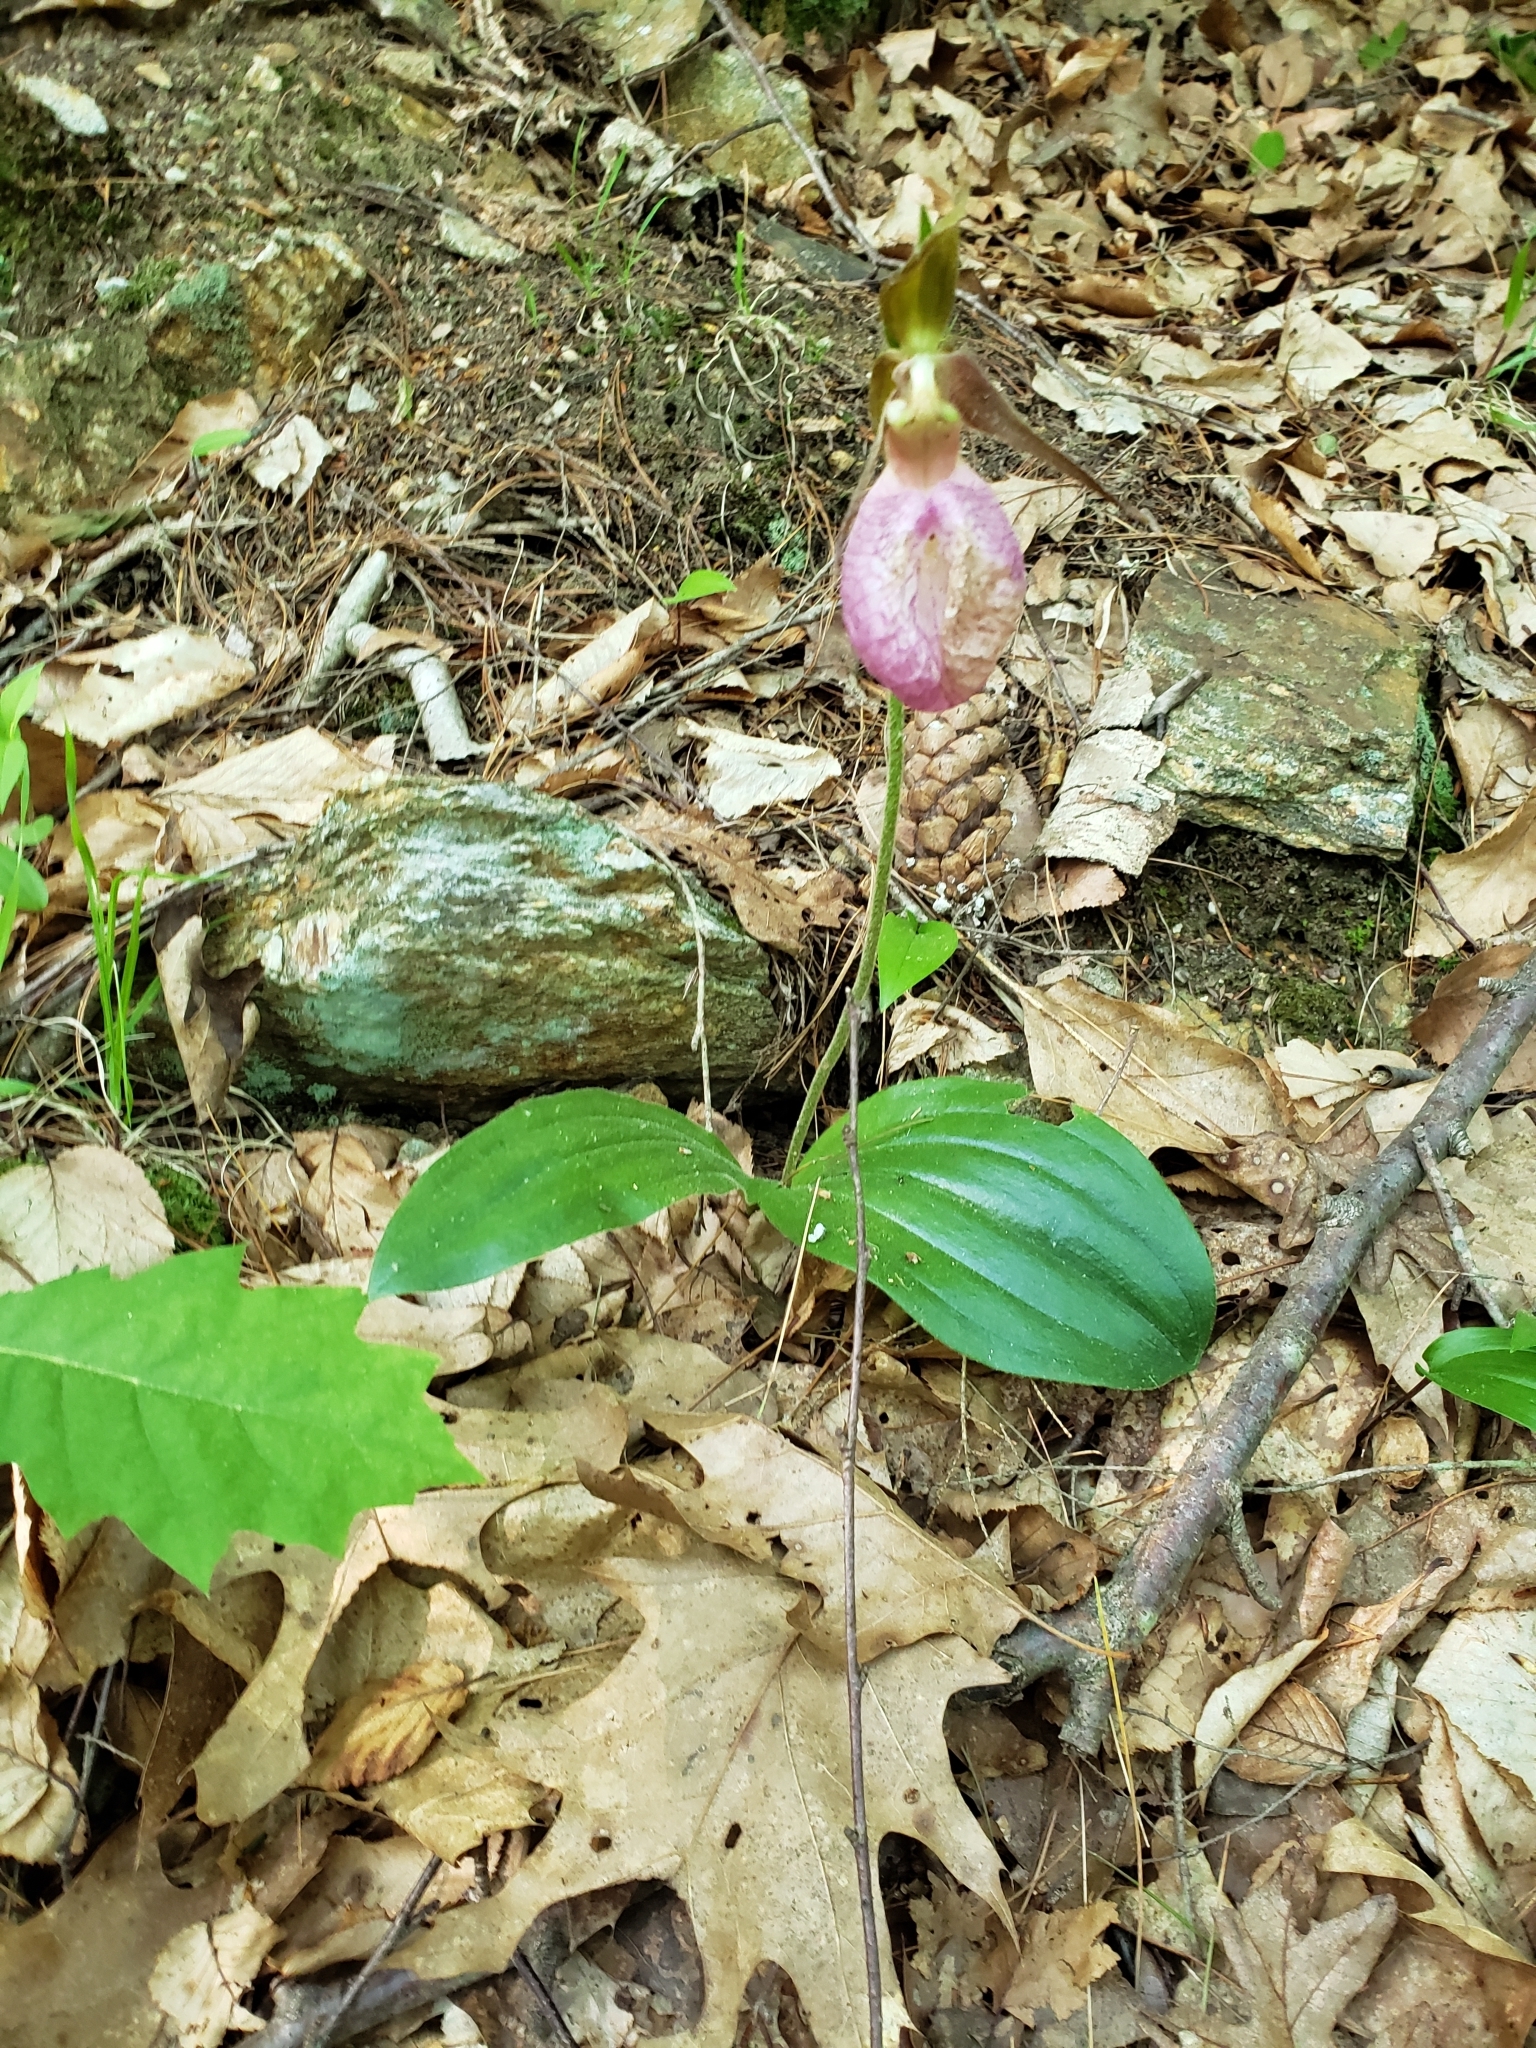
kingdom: Plantae
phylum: Tracheophyta
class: Liliopsida
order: Asparagales
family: Orchidaceae
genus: Cypripedium
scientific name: Cypripedium acaule
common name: Pink lady's-slipper
